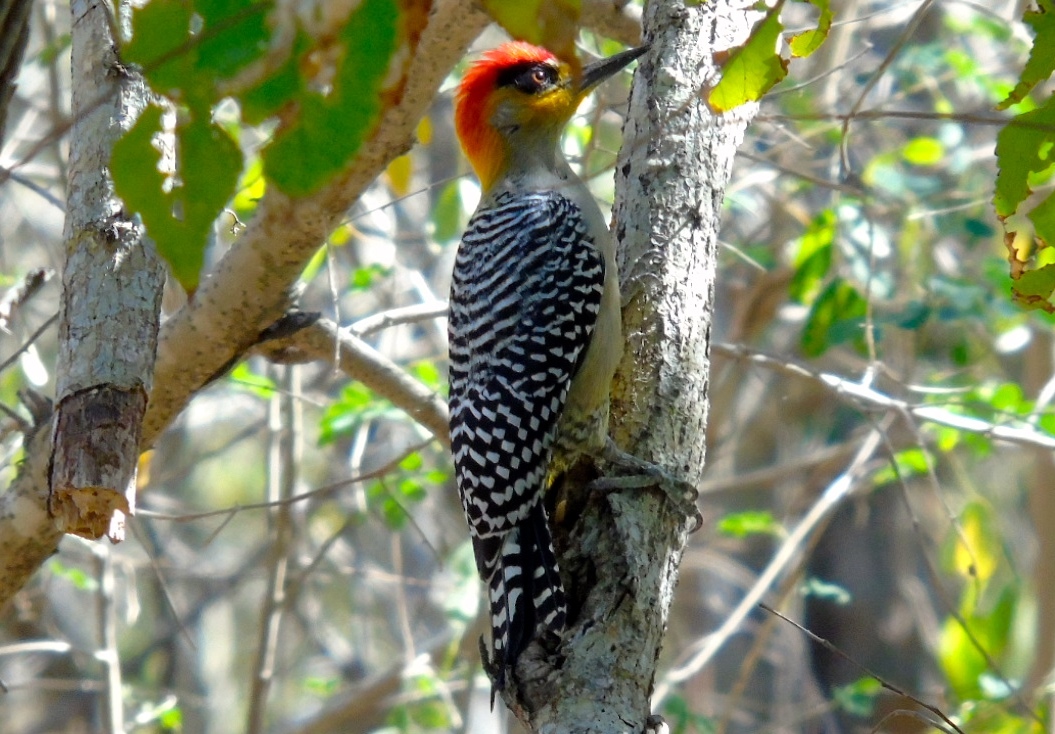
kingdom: Animalia
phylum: Chordata
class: Aves
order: Piciformes
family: Picidae
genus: Melanerpes
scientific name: Melanerpes chrysogenys
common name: Golden-cheeked woodpecker
